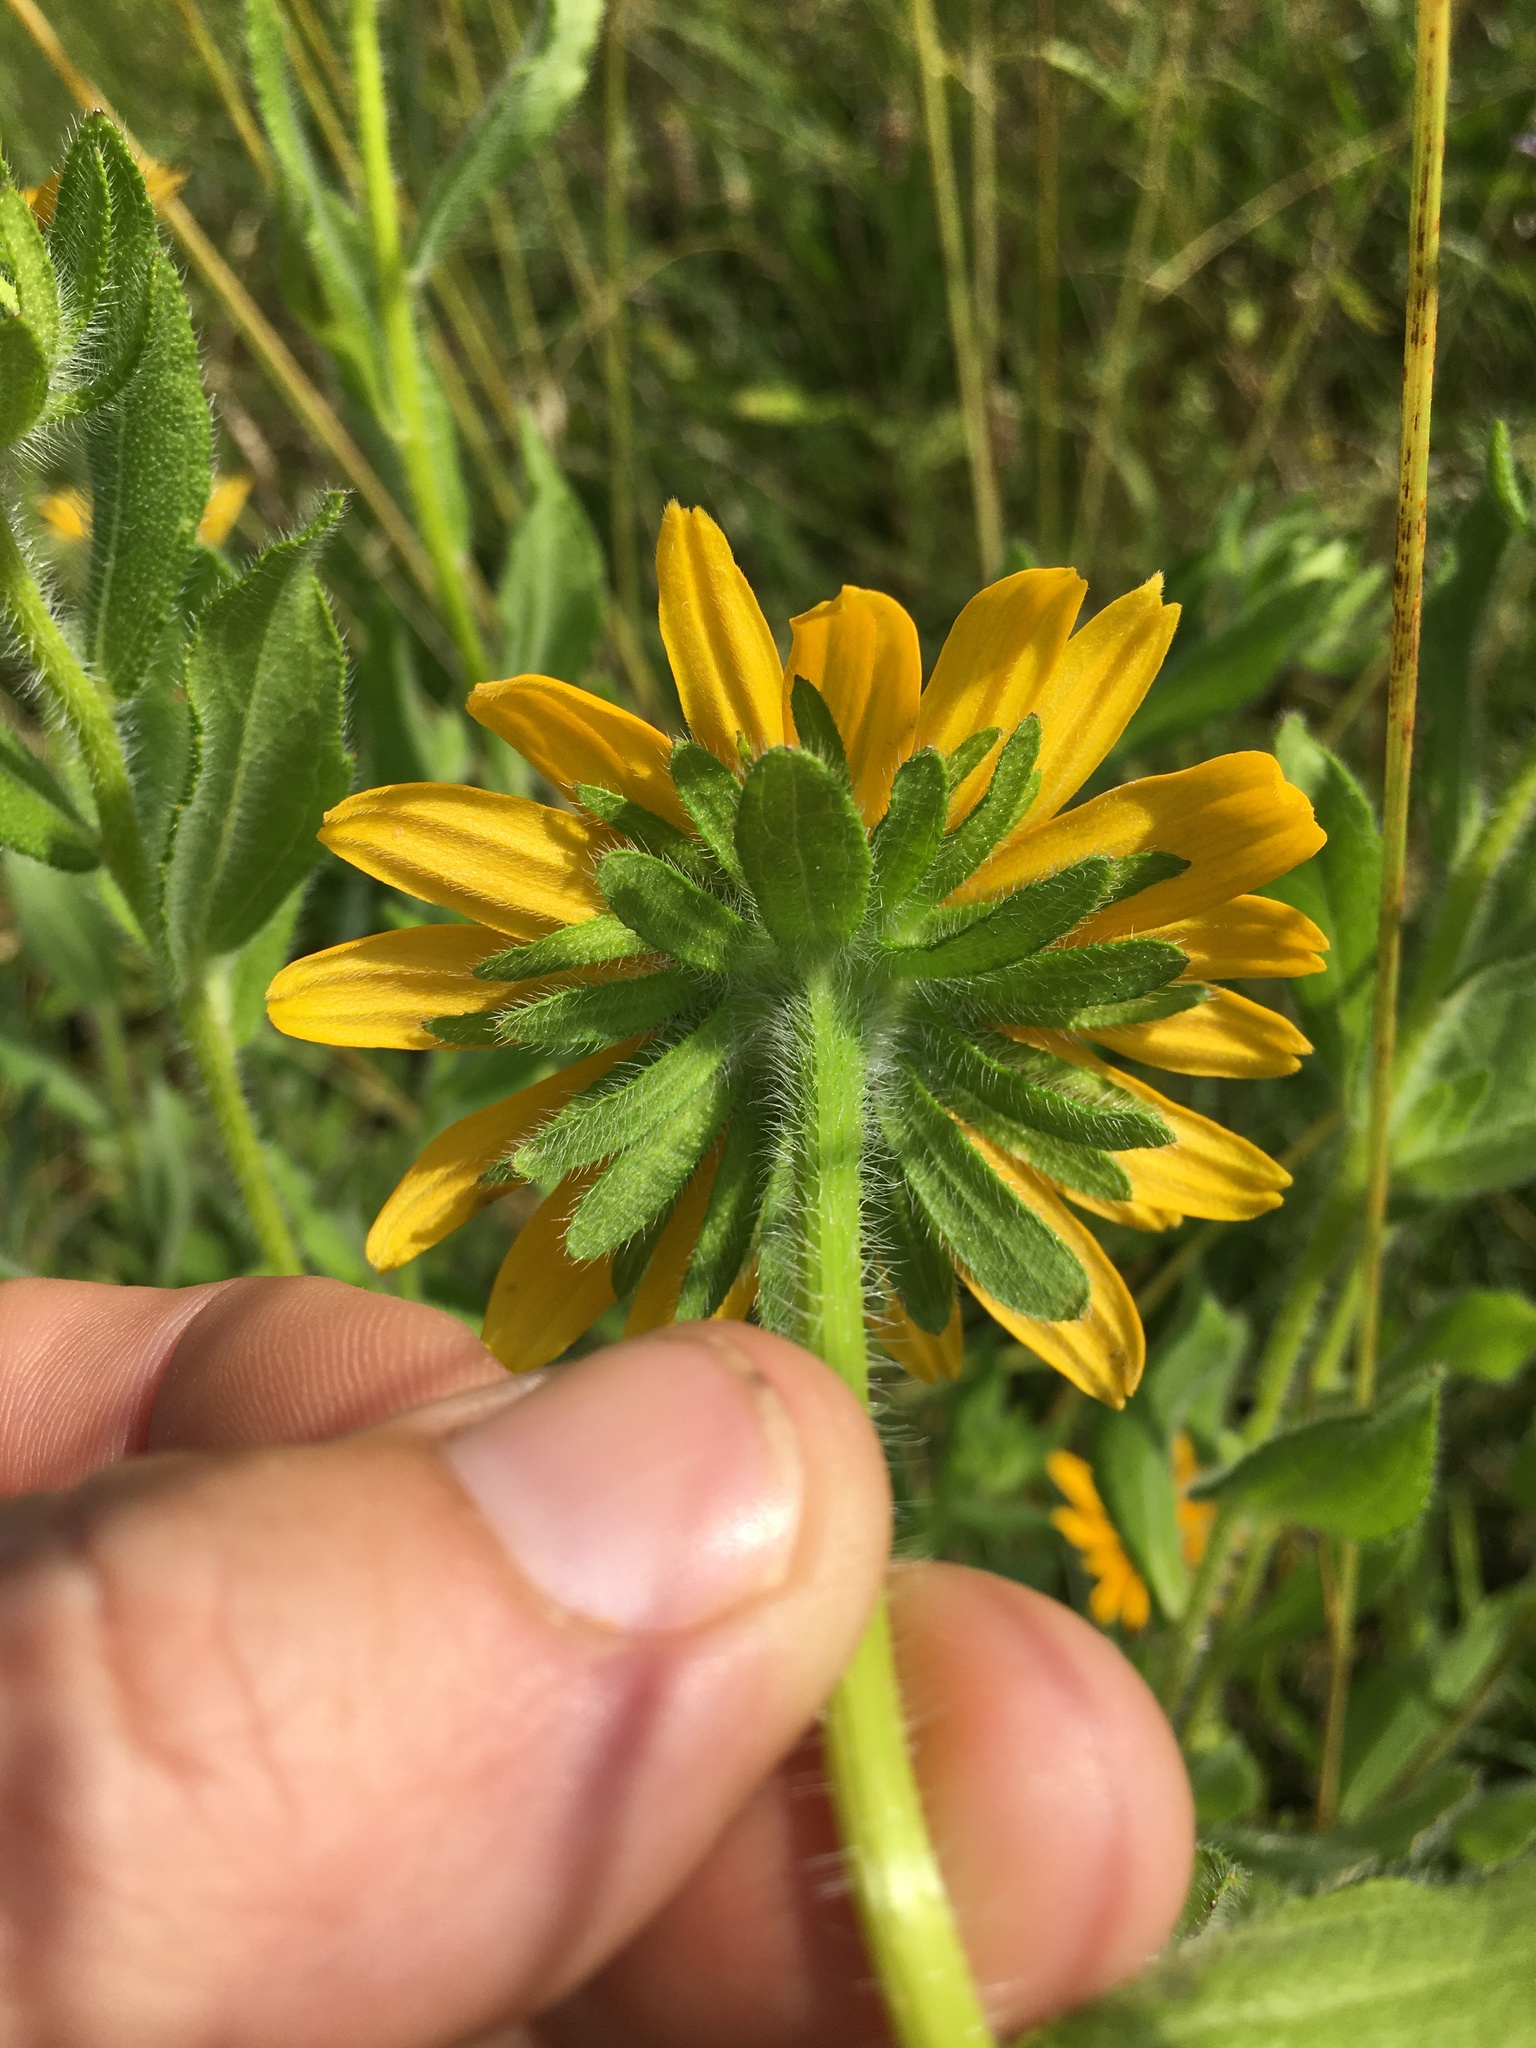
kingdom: Plantae
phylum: Tracheophyta
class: Magnoliopsida
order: Asterales
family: Asteraceae
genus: Rudbeckia
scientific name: Rudbeckia hirta
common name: Black-eyed-susan
